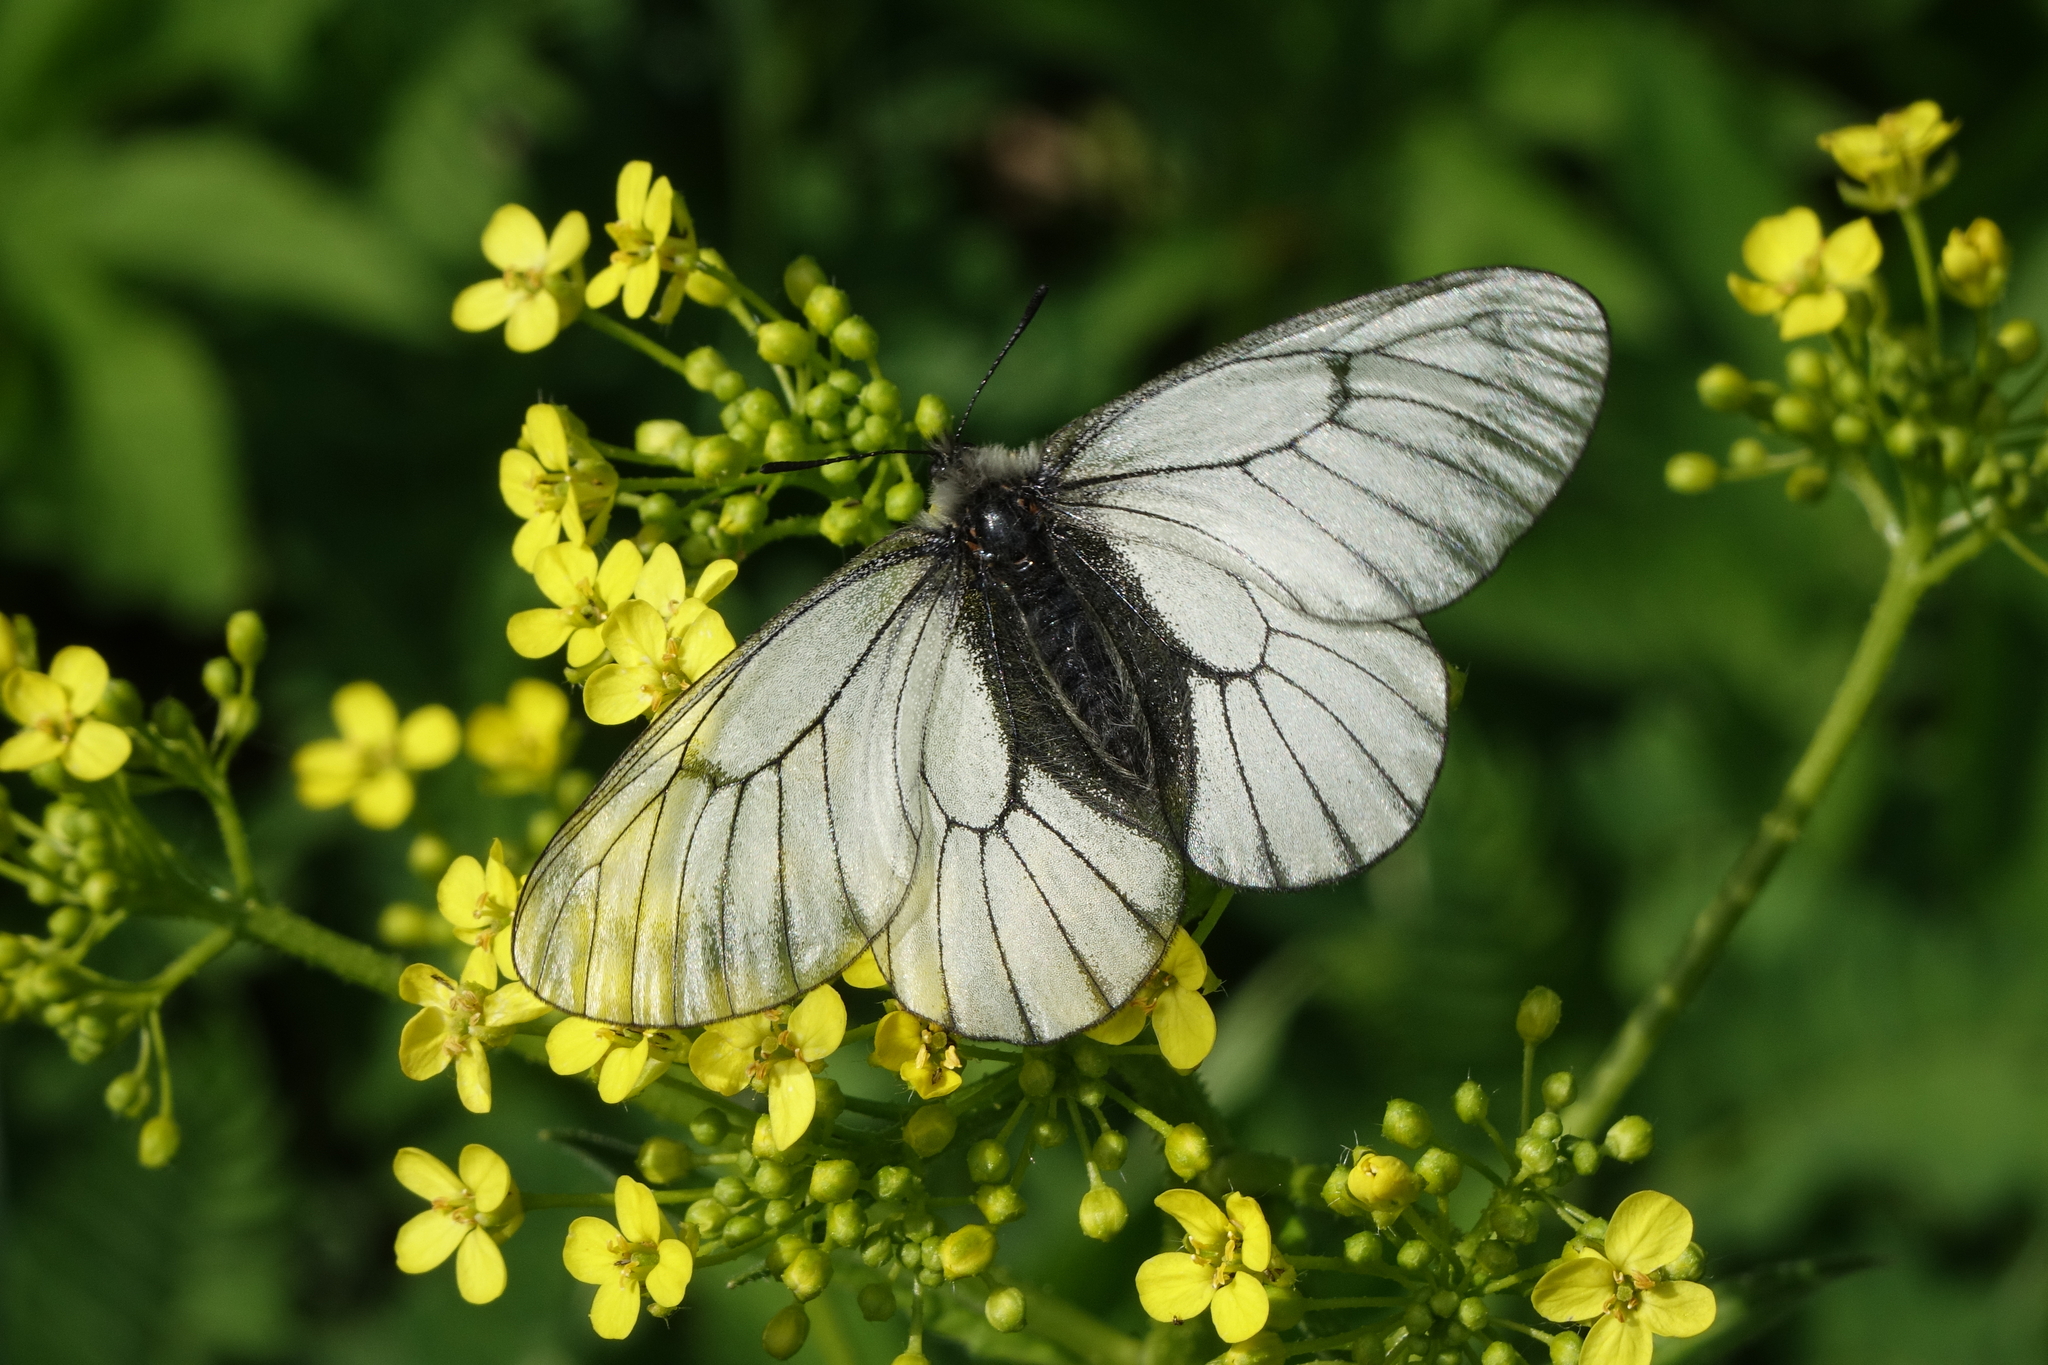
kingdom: Plantae
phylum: Tracheophyta
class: Magnoliopsida
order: Brassicales
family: Brassicaceae
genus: Bunias
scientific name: Bunias orientalis
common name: Warty-cabbage
